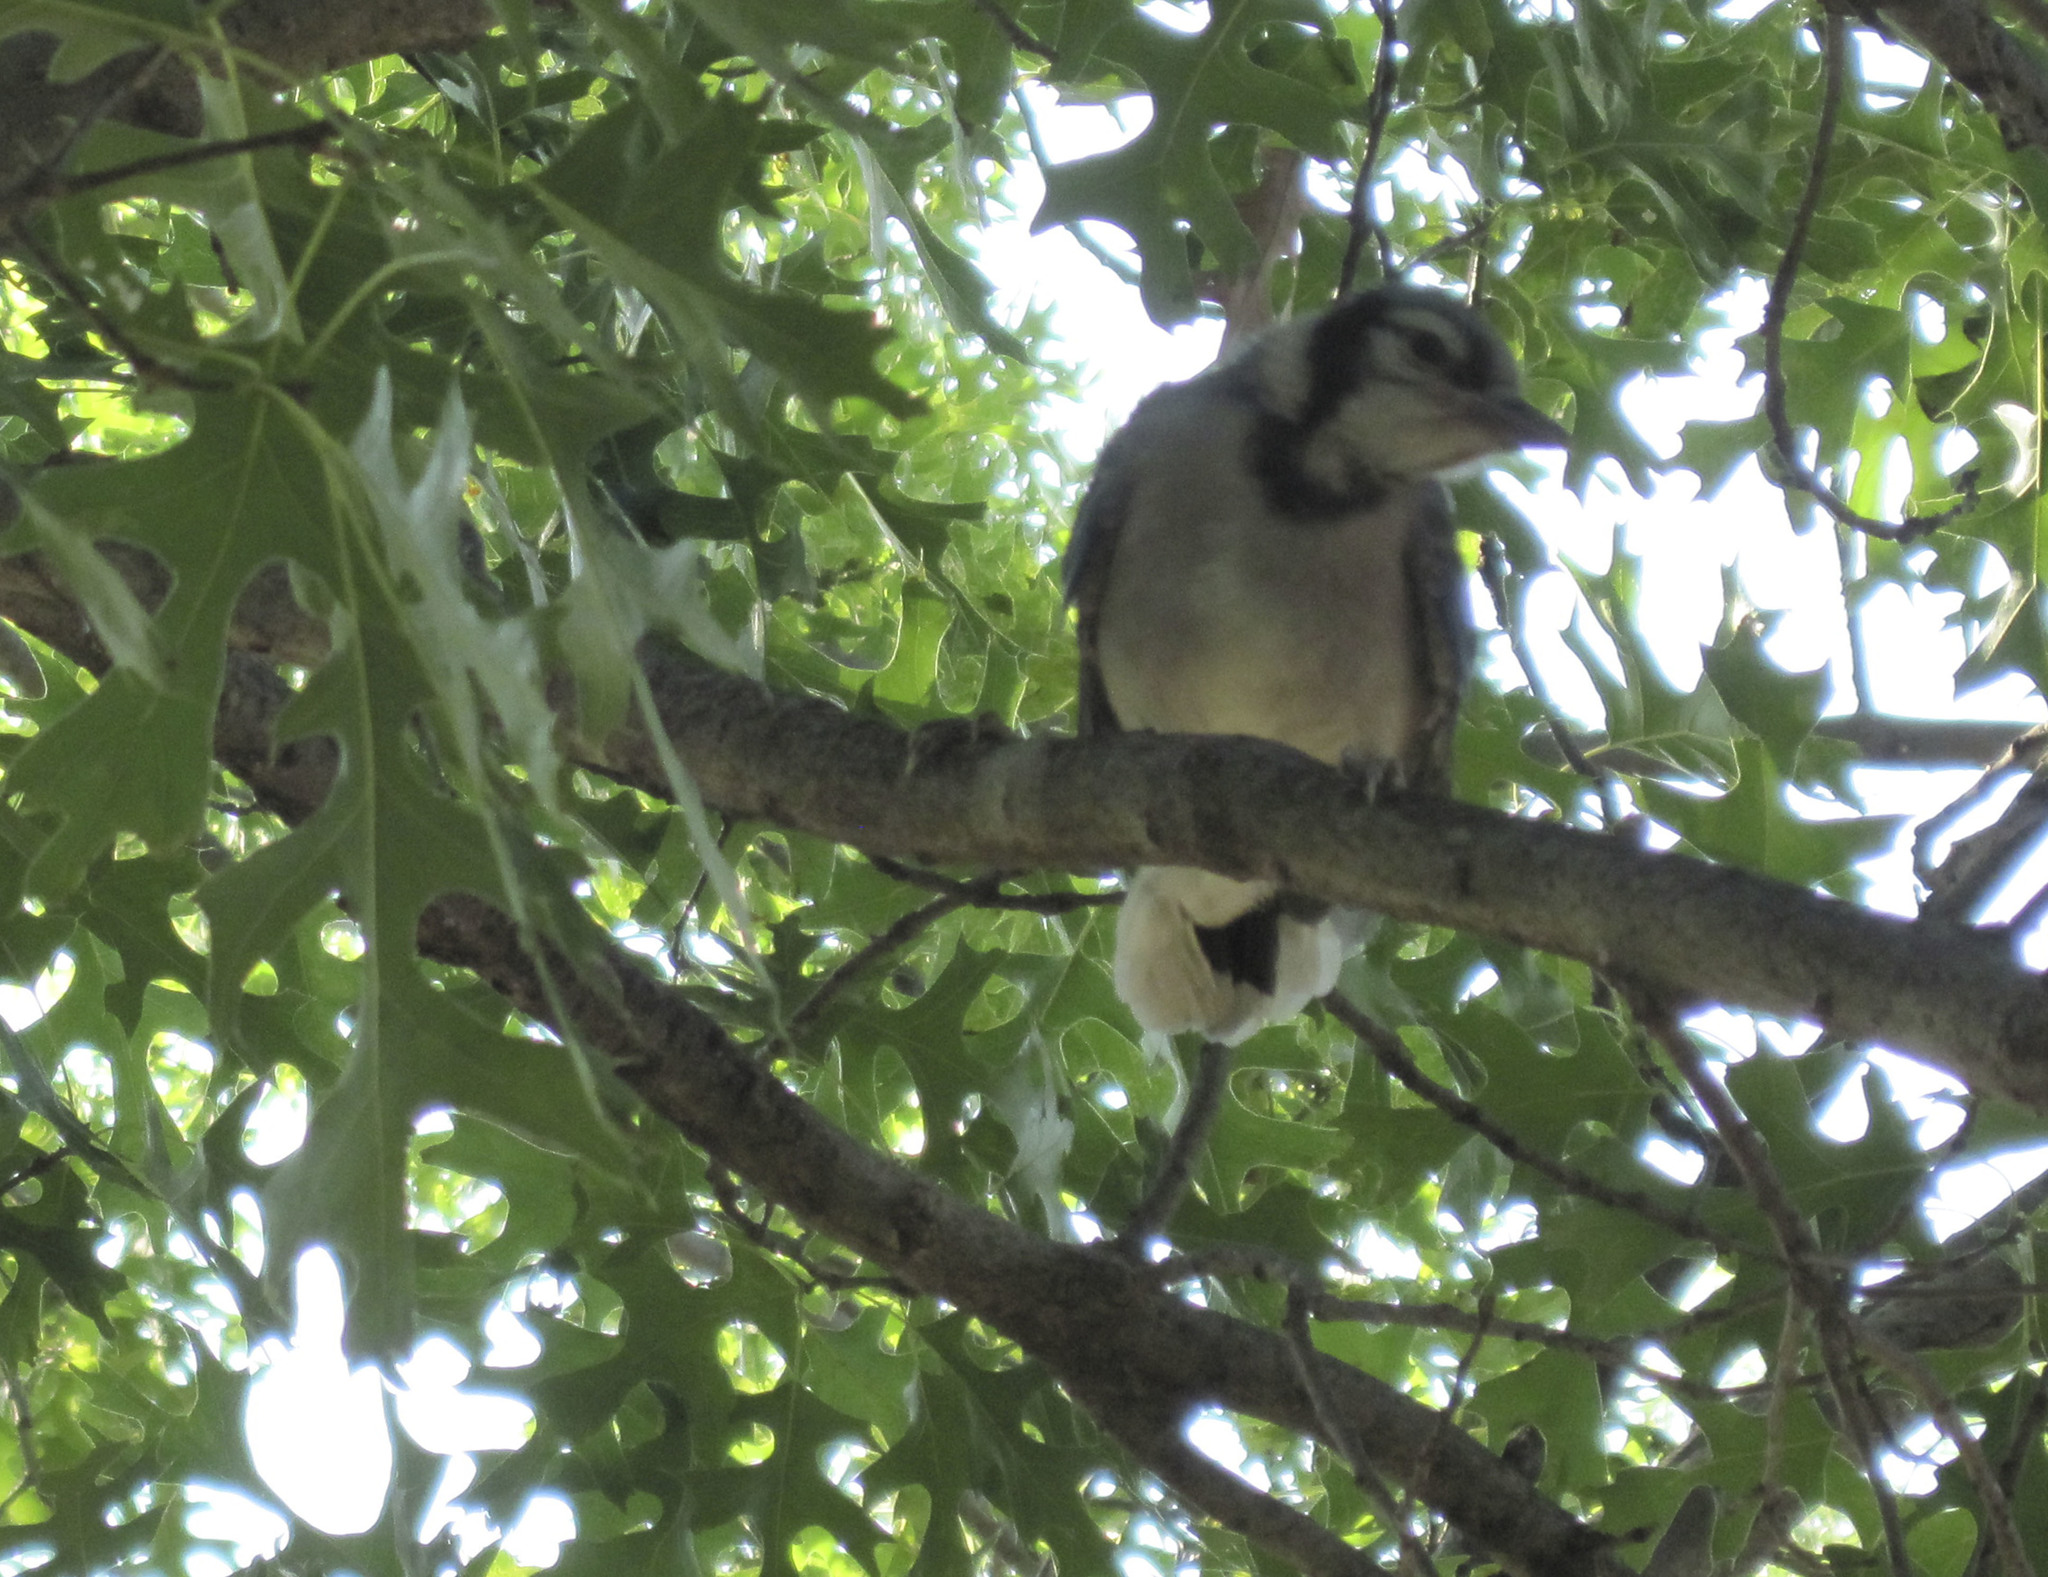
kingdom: Animalia
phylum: Chordata
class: Aves
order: Passeriformes
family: Corvidae
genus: Cyanocitta
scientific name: Cyanocitta cristata
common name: Blue jay
